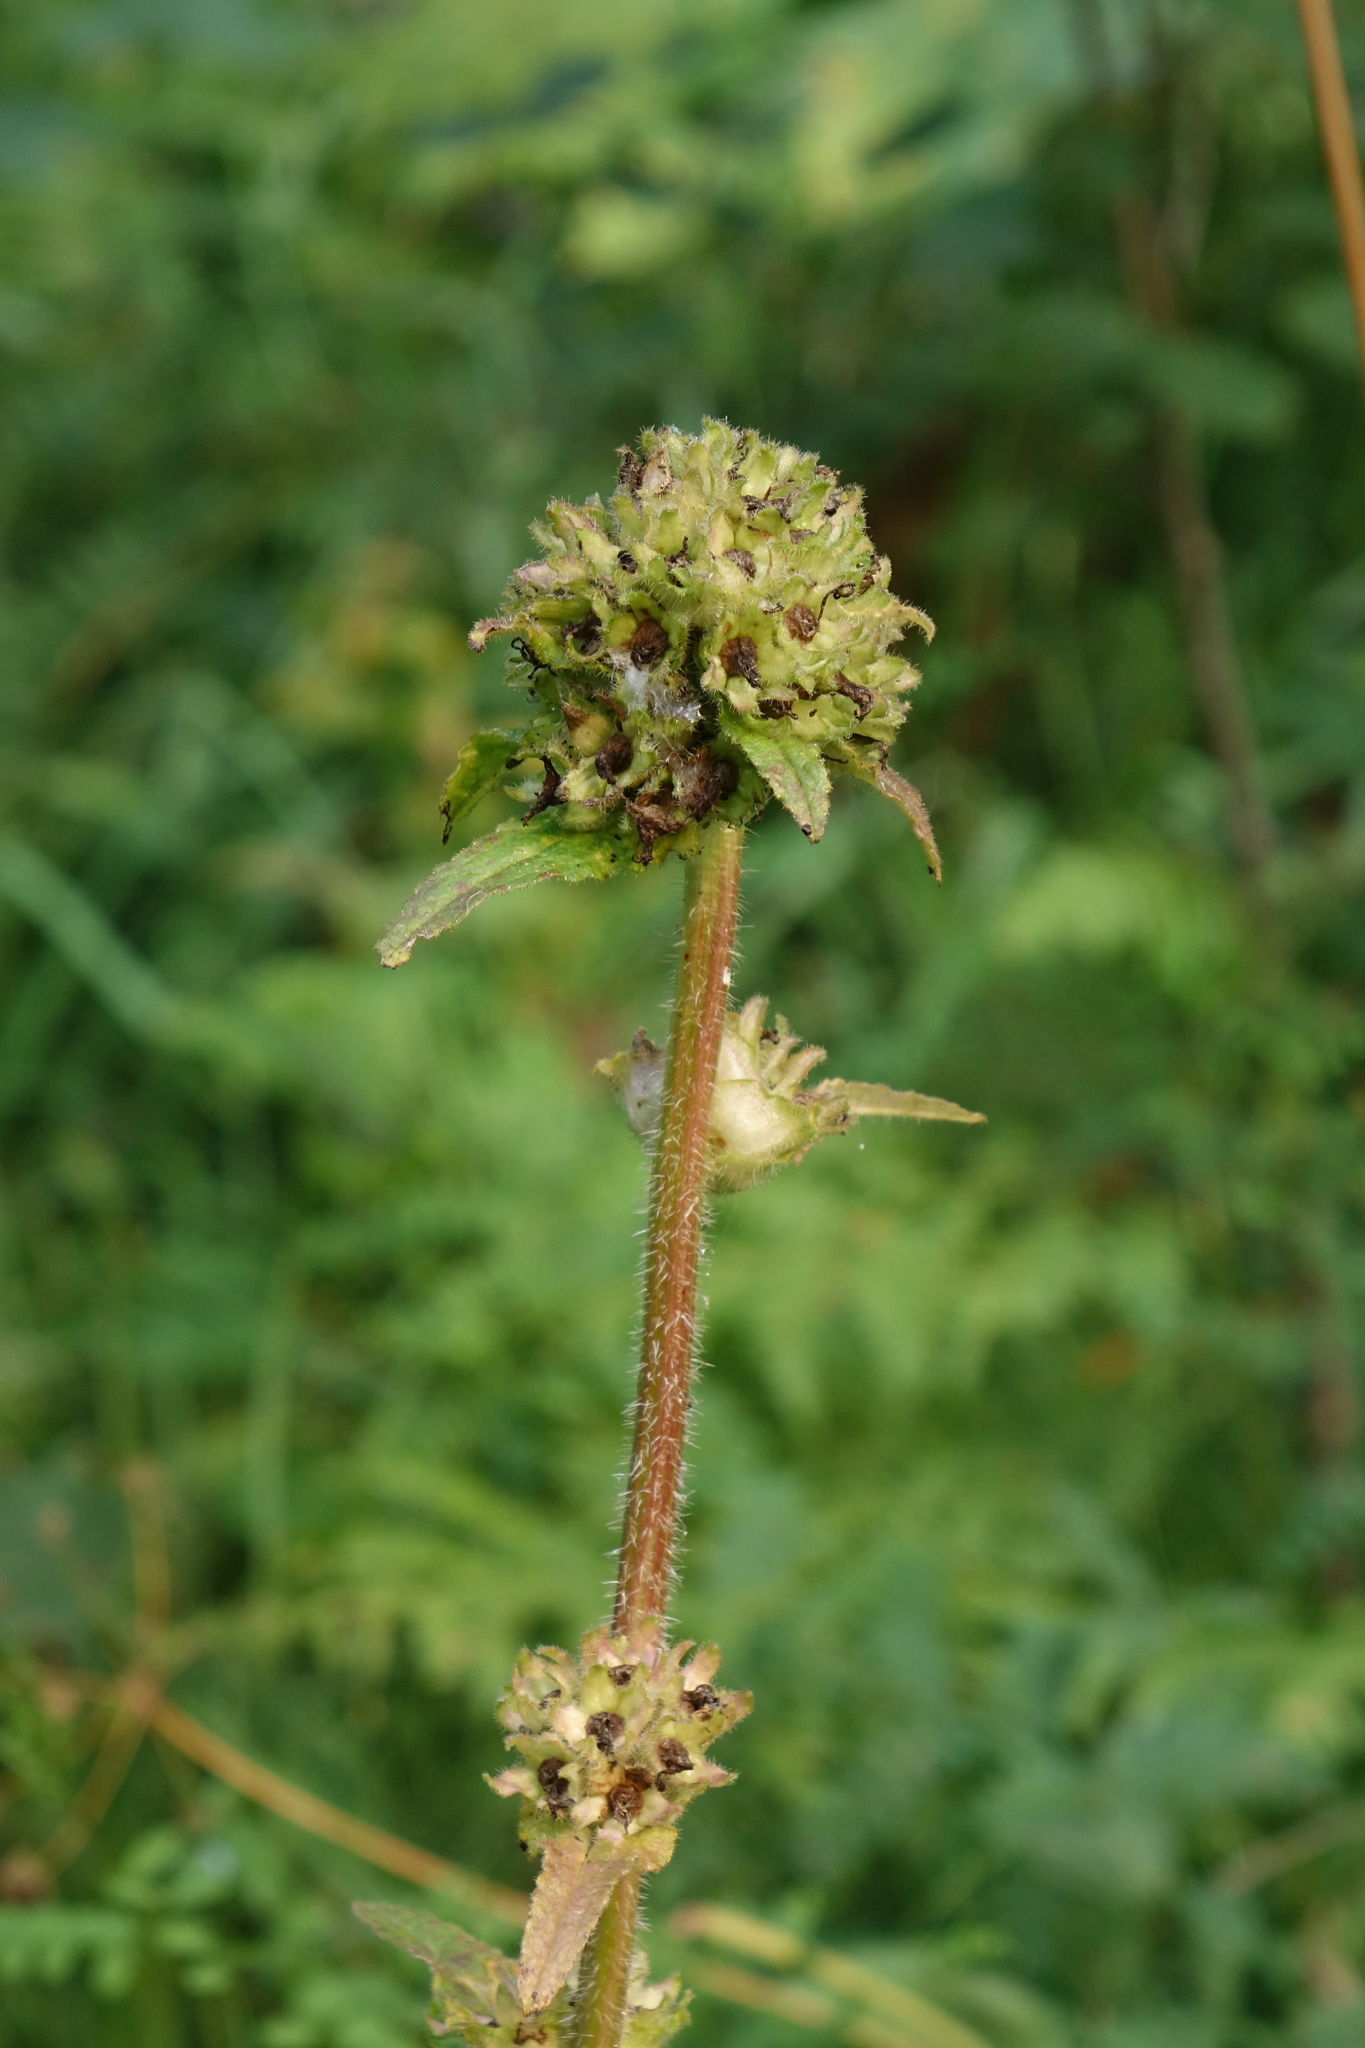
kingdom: Plantae
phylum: Tracheophyta
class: Magnoliopsida
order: Asterales
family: Campanulaceae
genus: Campanula
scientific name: Campanula cervicaria
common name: Bristly bellflower
